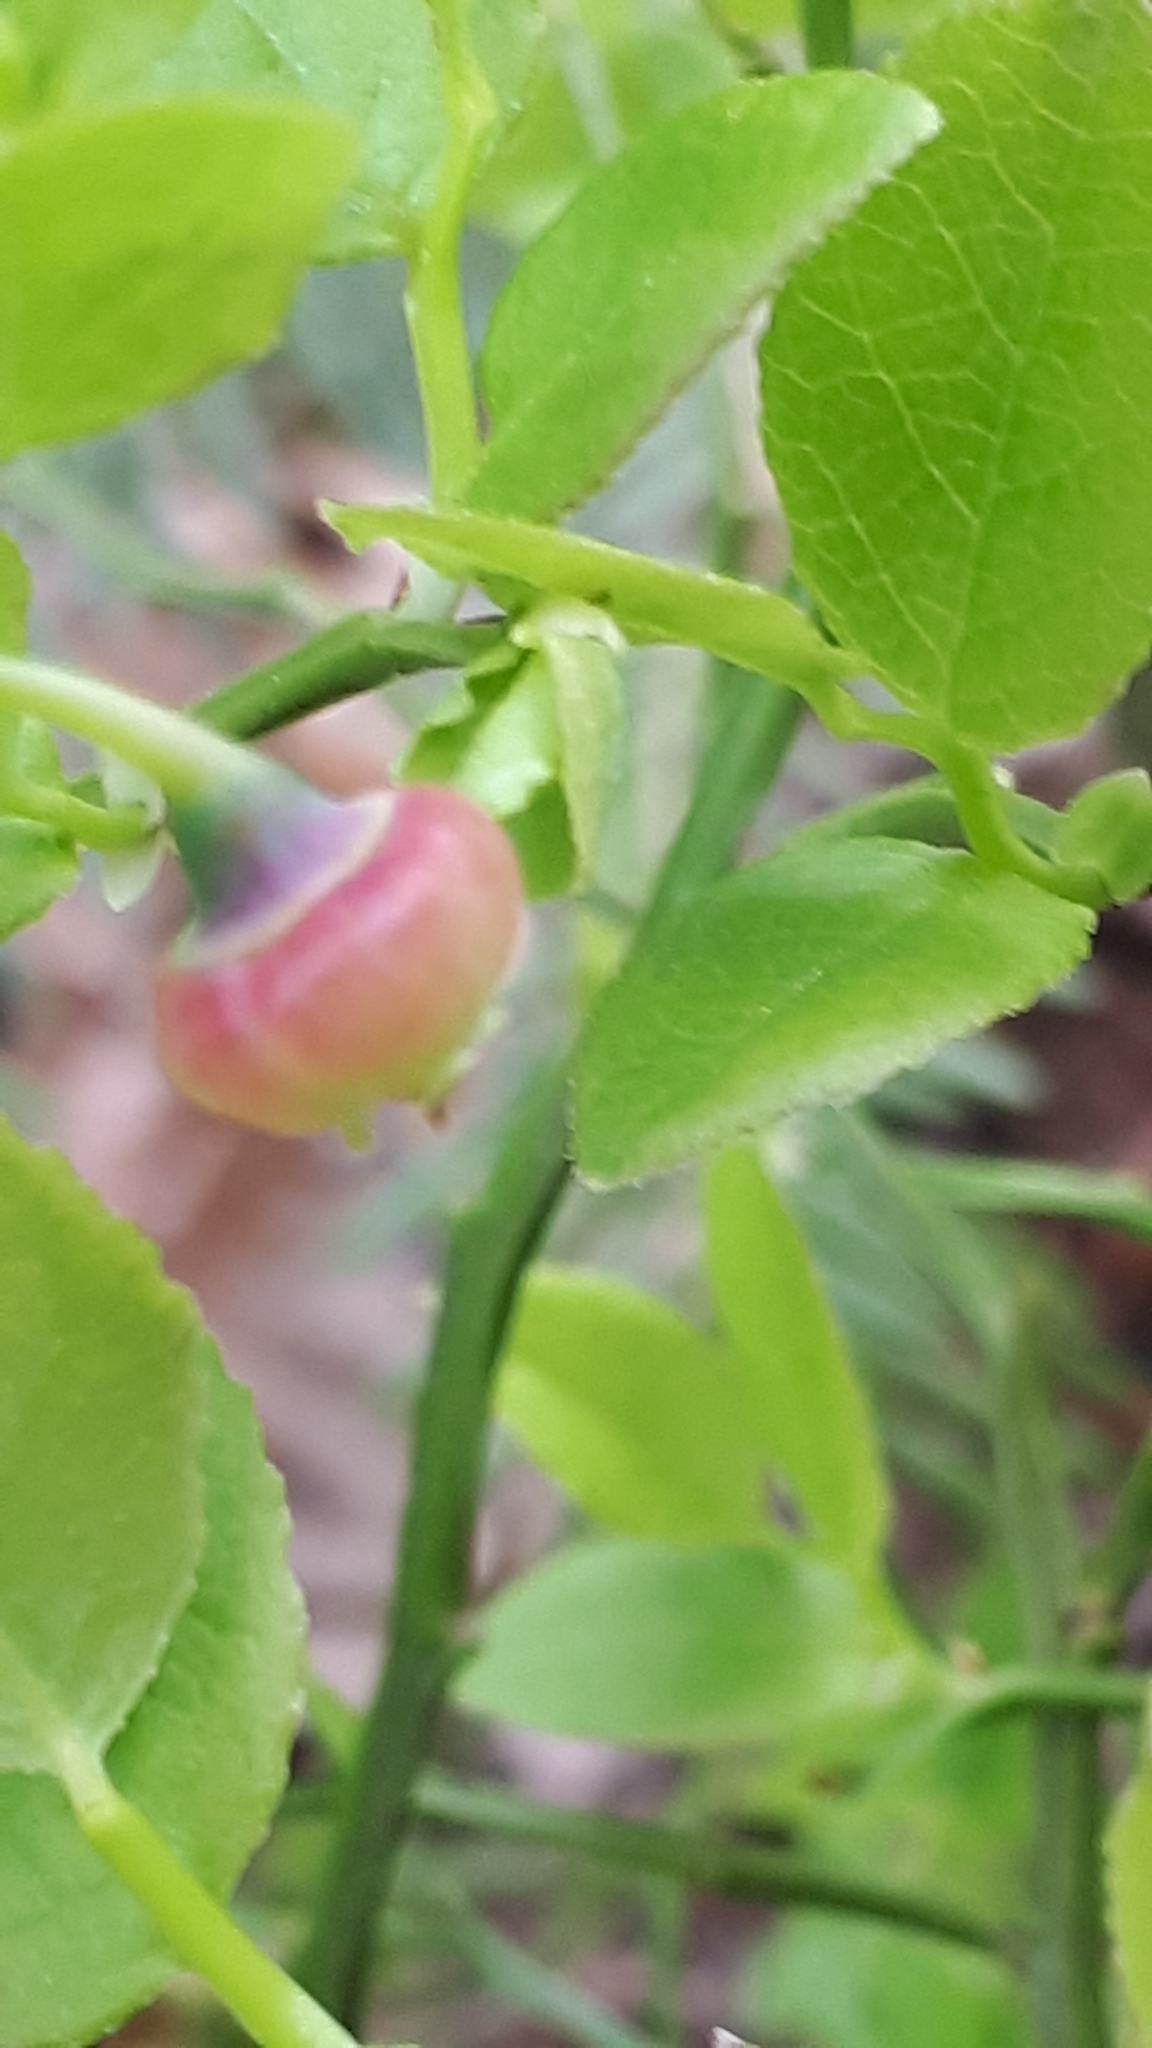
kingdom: Plantae
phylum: Tracheophyta
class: Magnoliopsida
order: Ericales
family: Ericaceae
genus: Vaccinium
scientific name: Vaccinium myrtillus
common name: Bilberry
